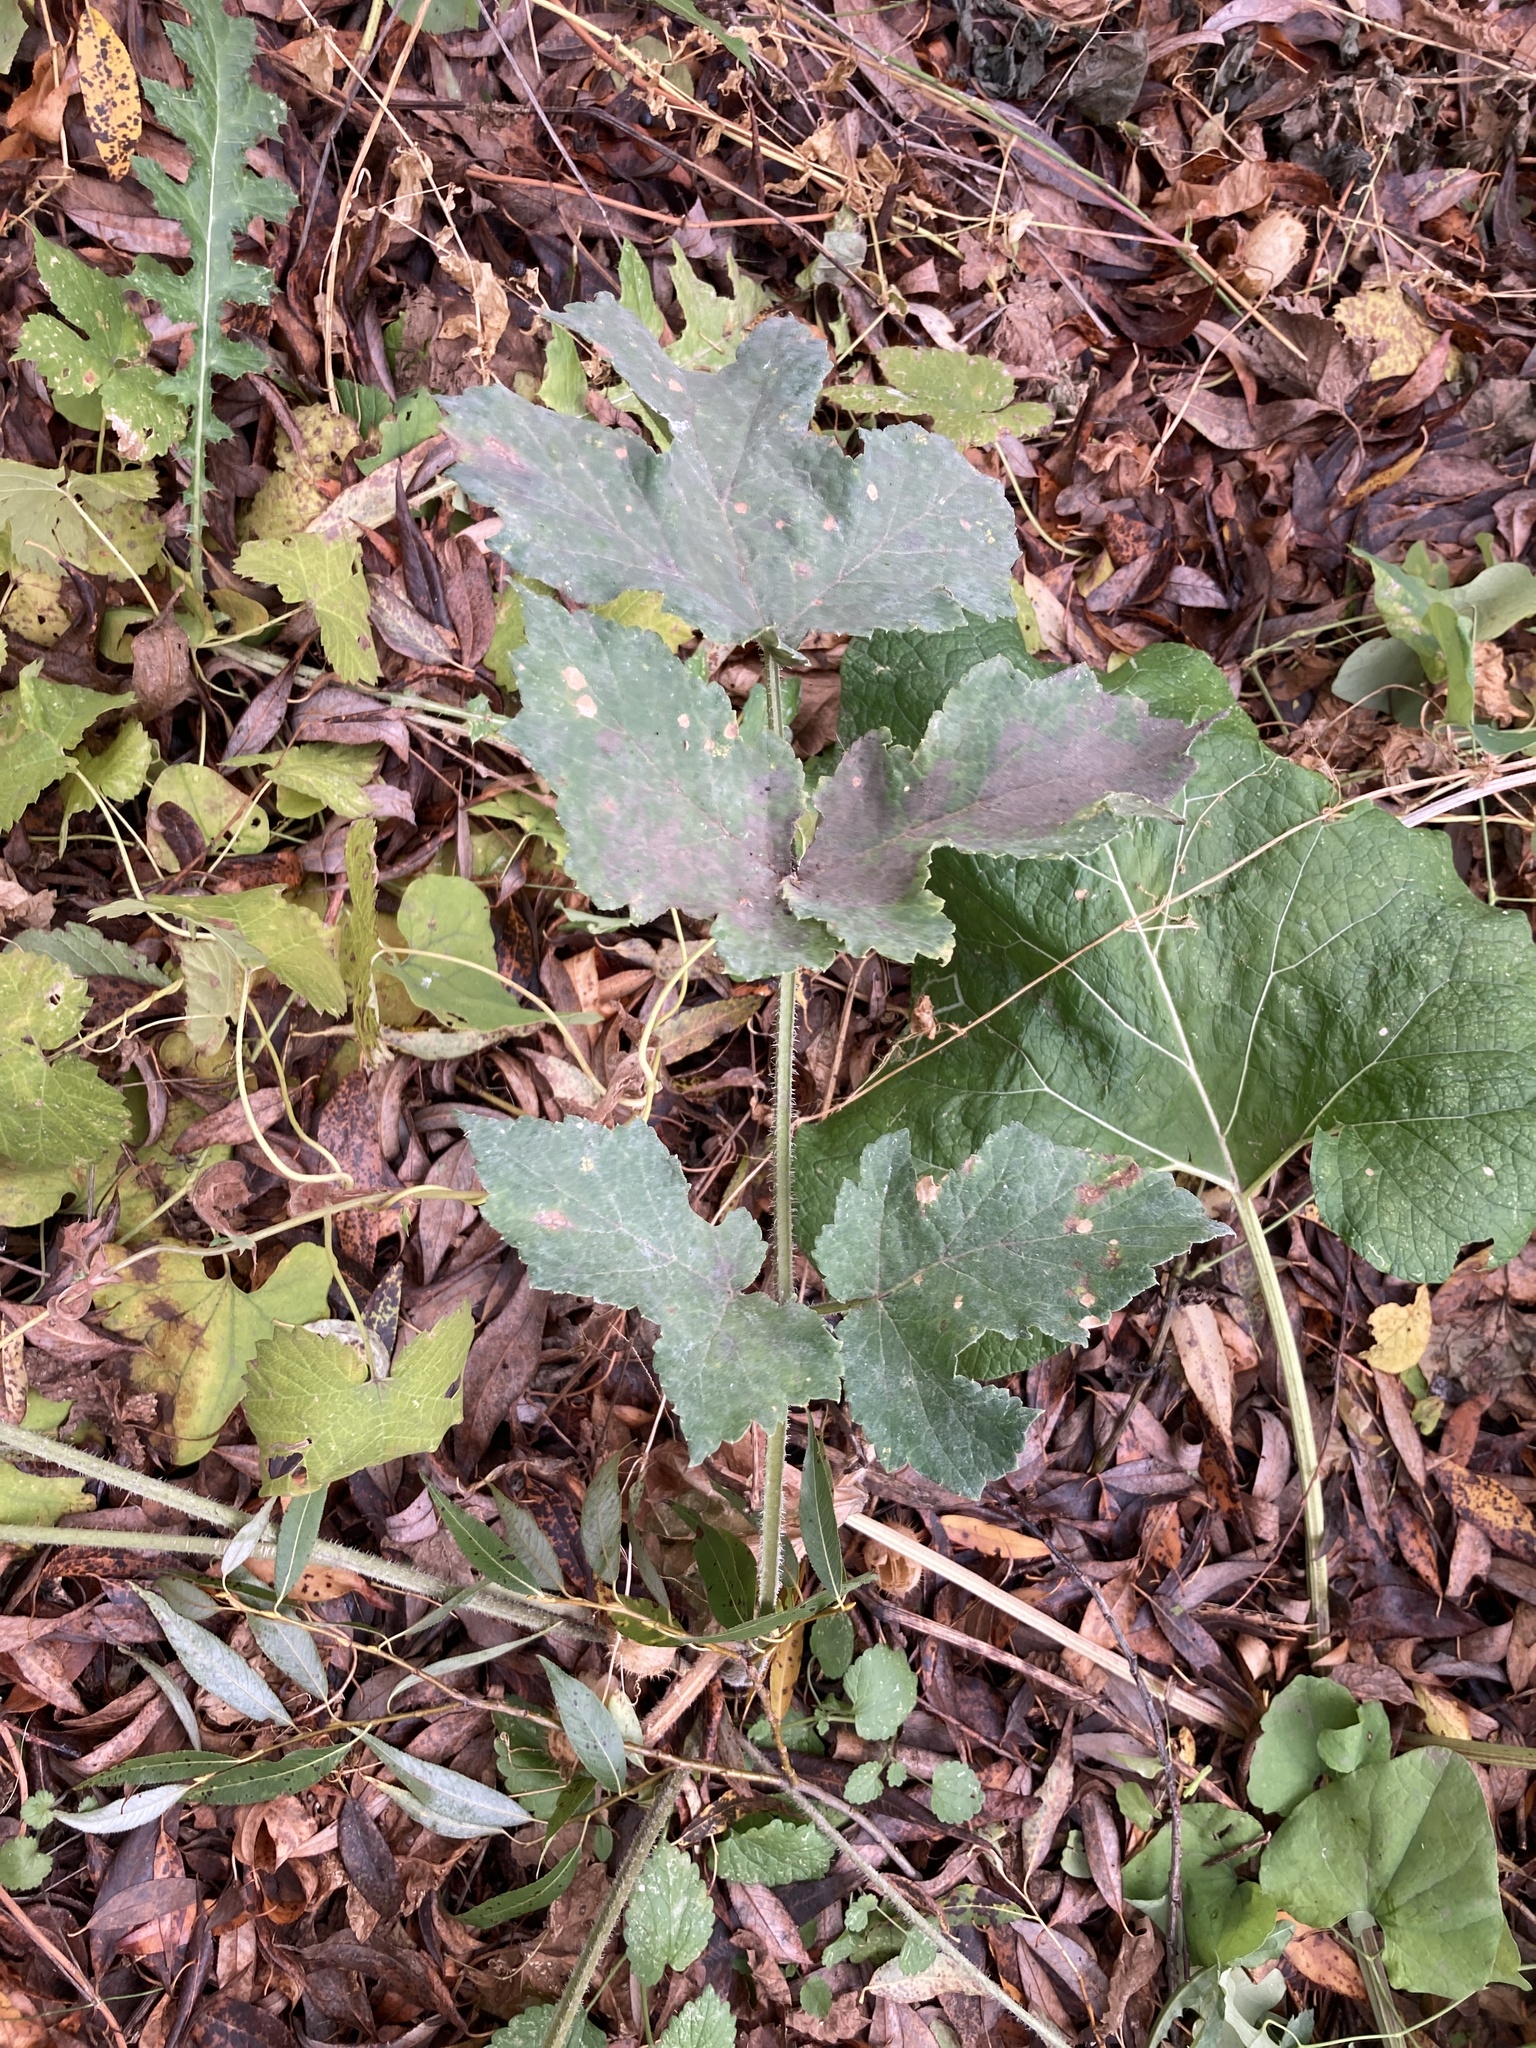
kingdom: Plantae
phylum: Tracheophyta
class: Magnoliopsida
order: Apiales
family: Apiaceae
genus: Heracleum
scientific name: Heracleum sphondylium
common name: Hogweed
